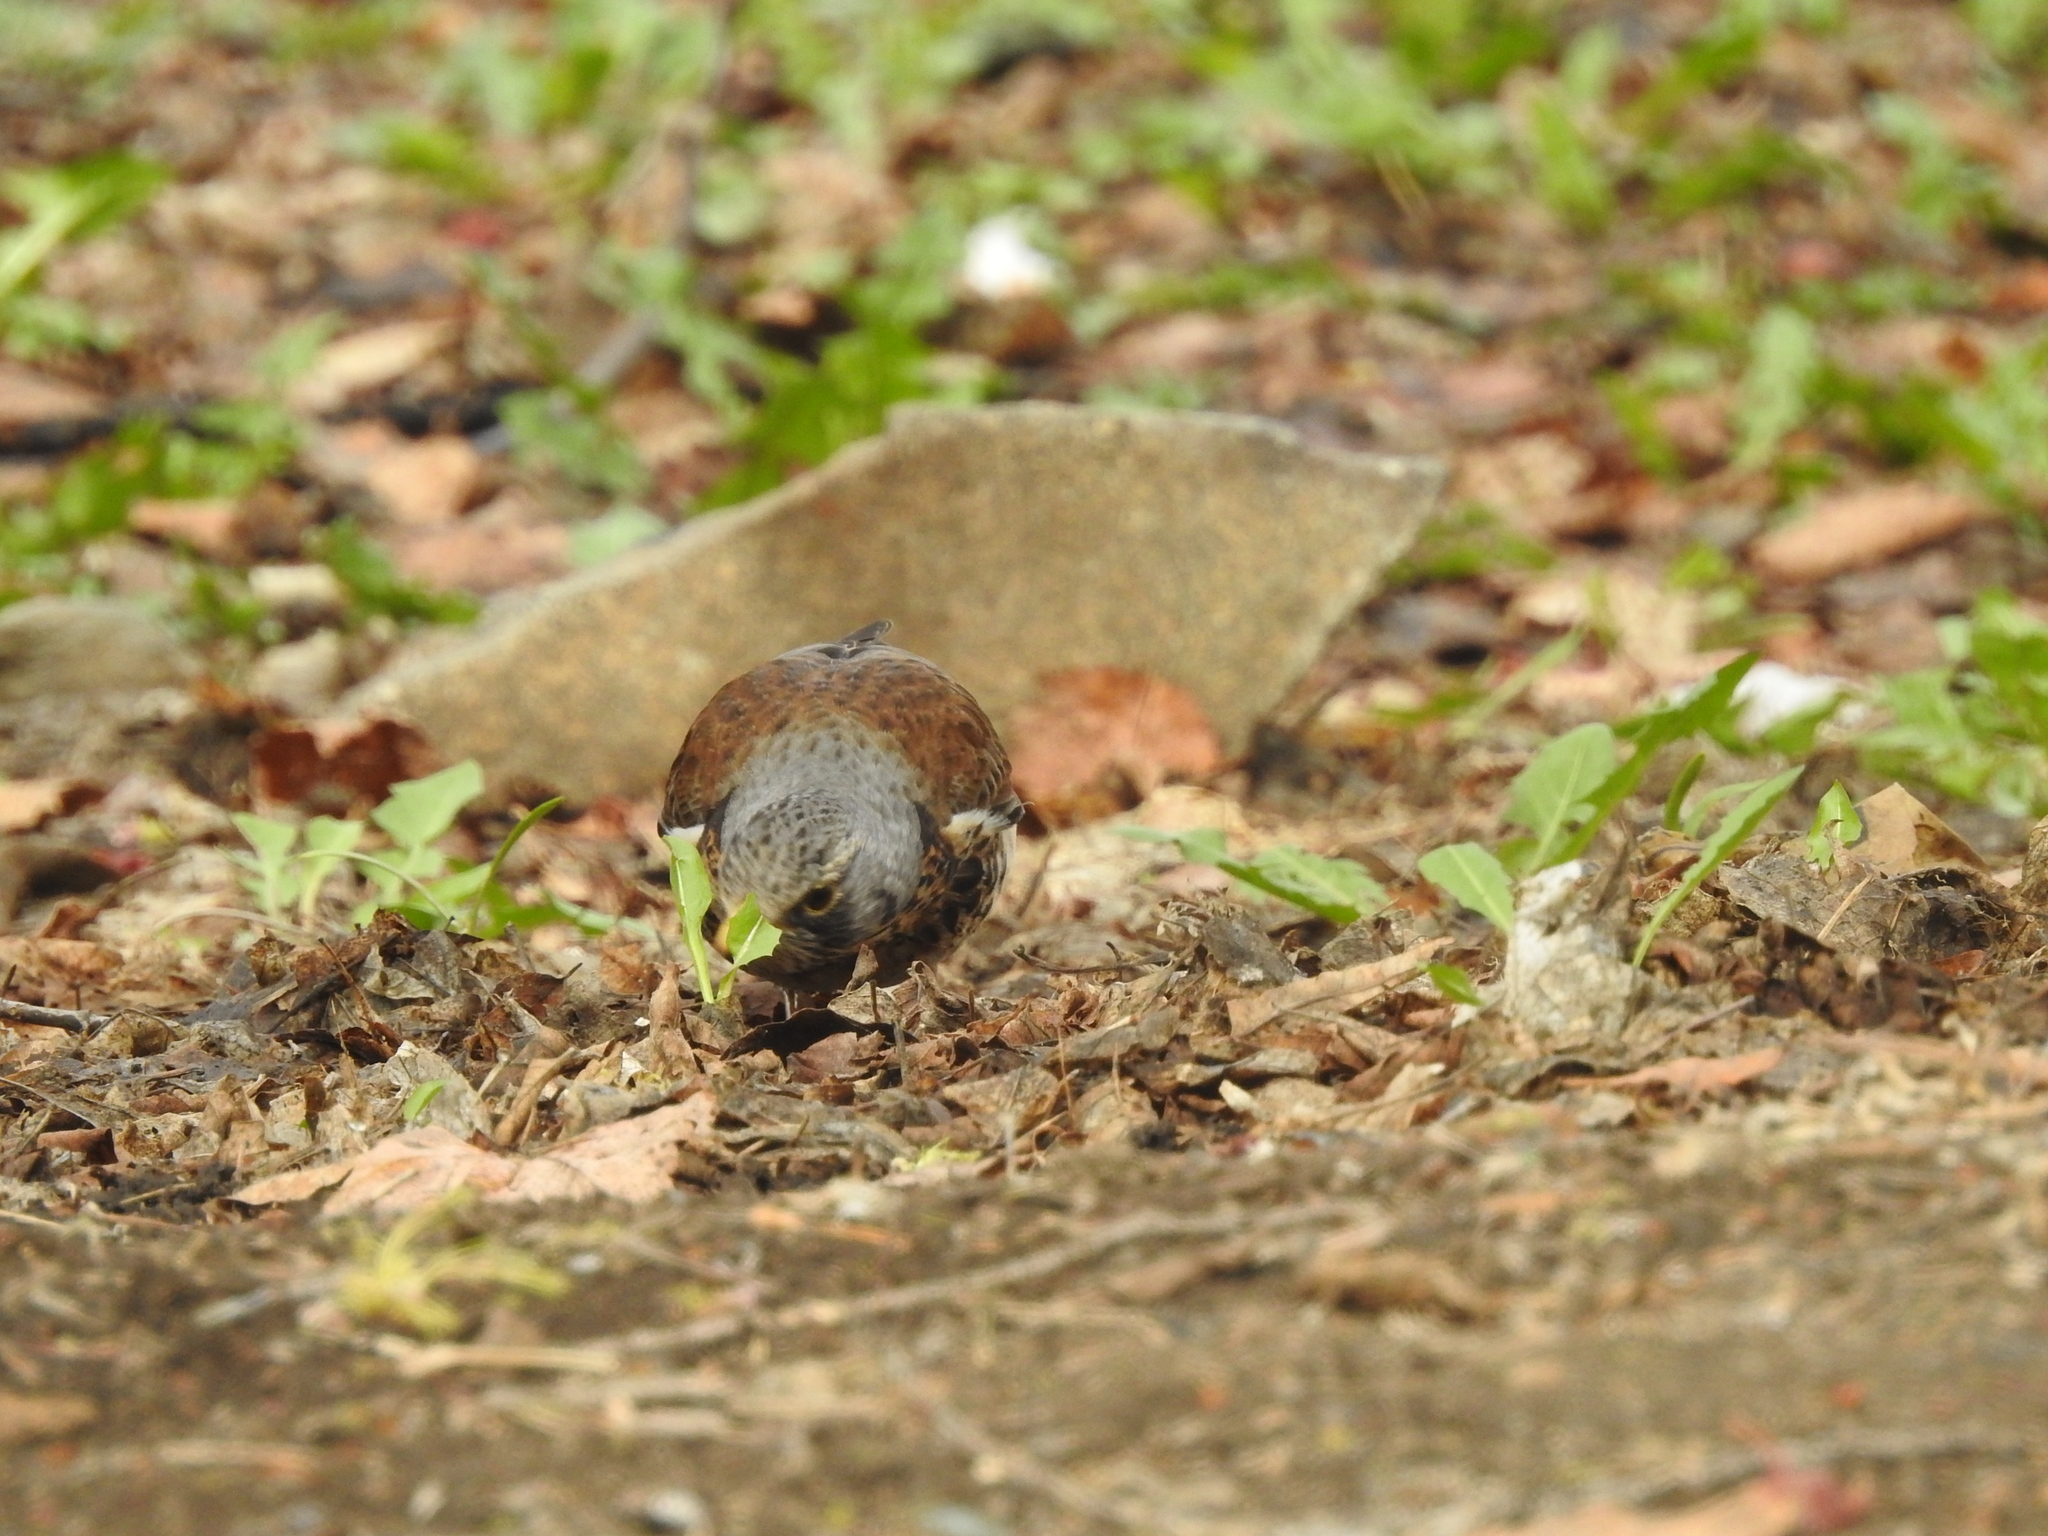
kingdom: Animalia
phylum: Chordata
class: Aves
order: Passeriformes
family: Turdidae
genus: Turdus
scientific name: Turdus pilaris
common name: Fieldfare
